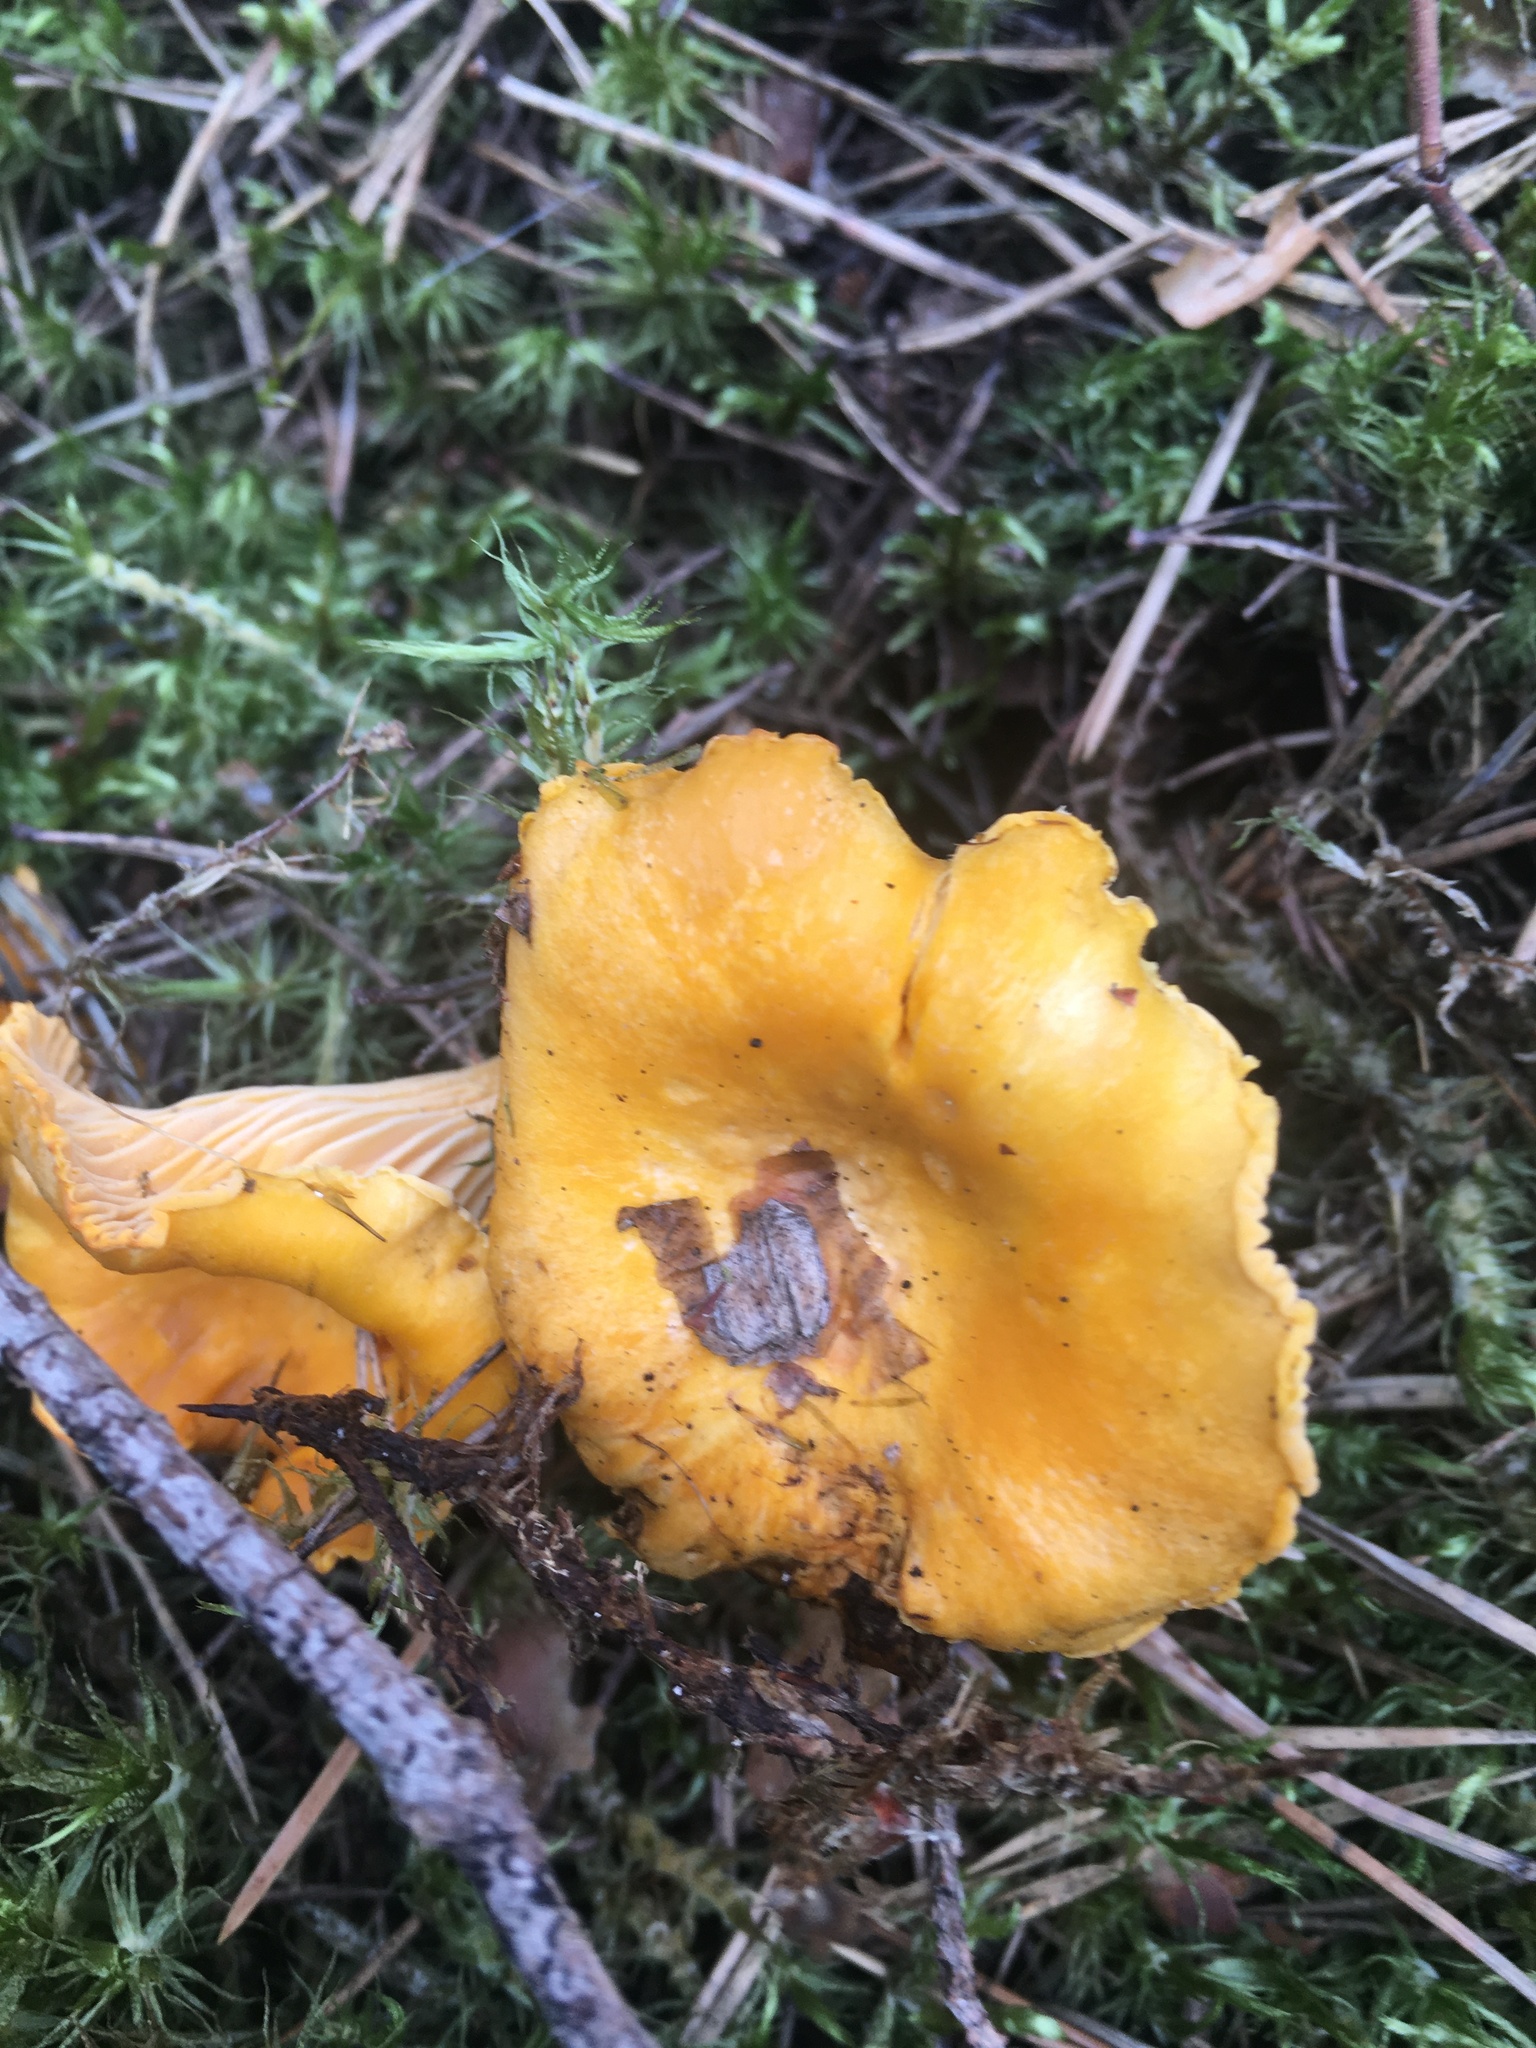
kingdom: Fungi
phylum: Basidiomycota
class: Agaricomycetes
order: Cantharellales
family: Hydnaceae
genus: Cantharellus
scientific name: Cantharellus cibarius
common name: Chanterelle
